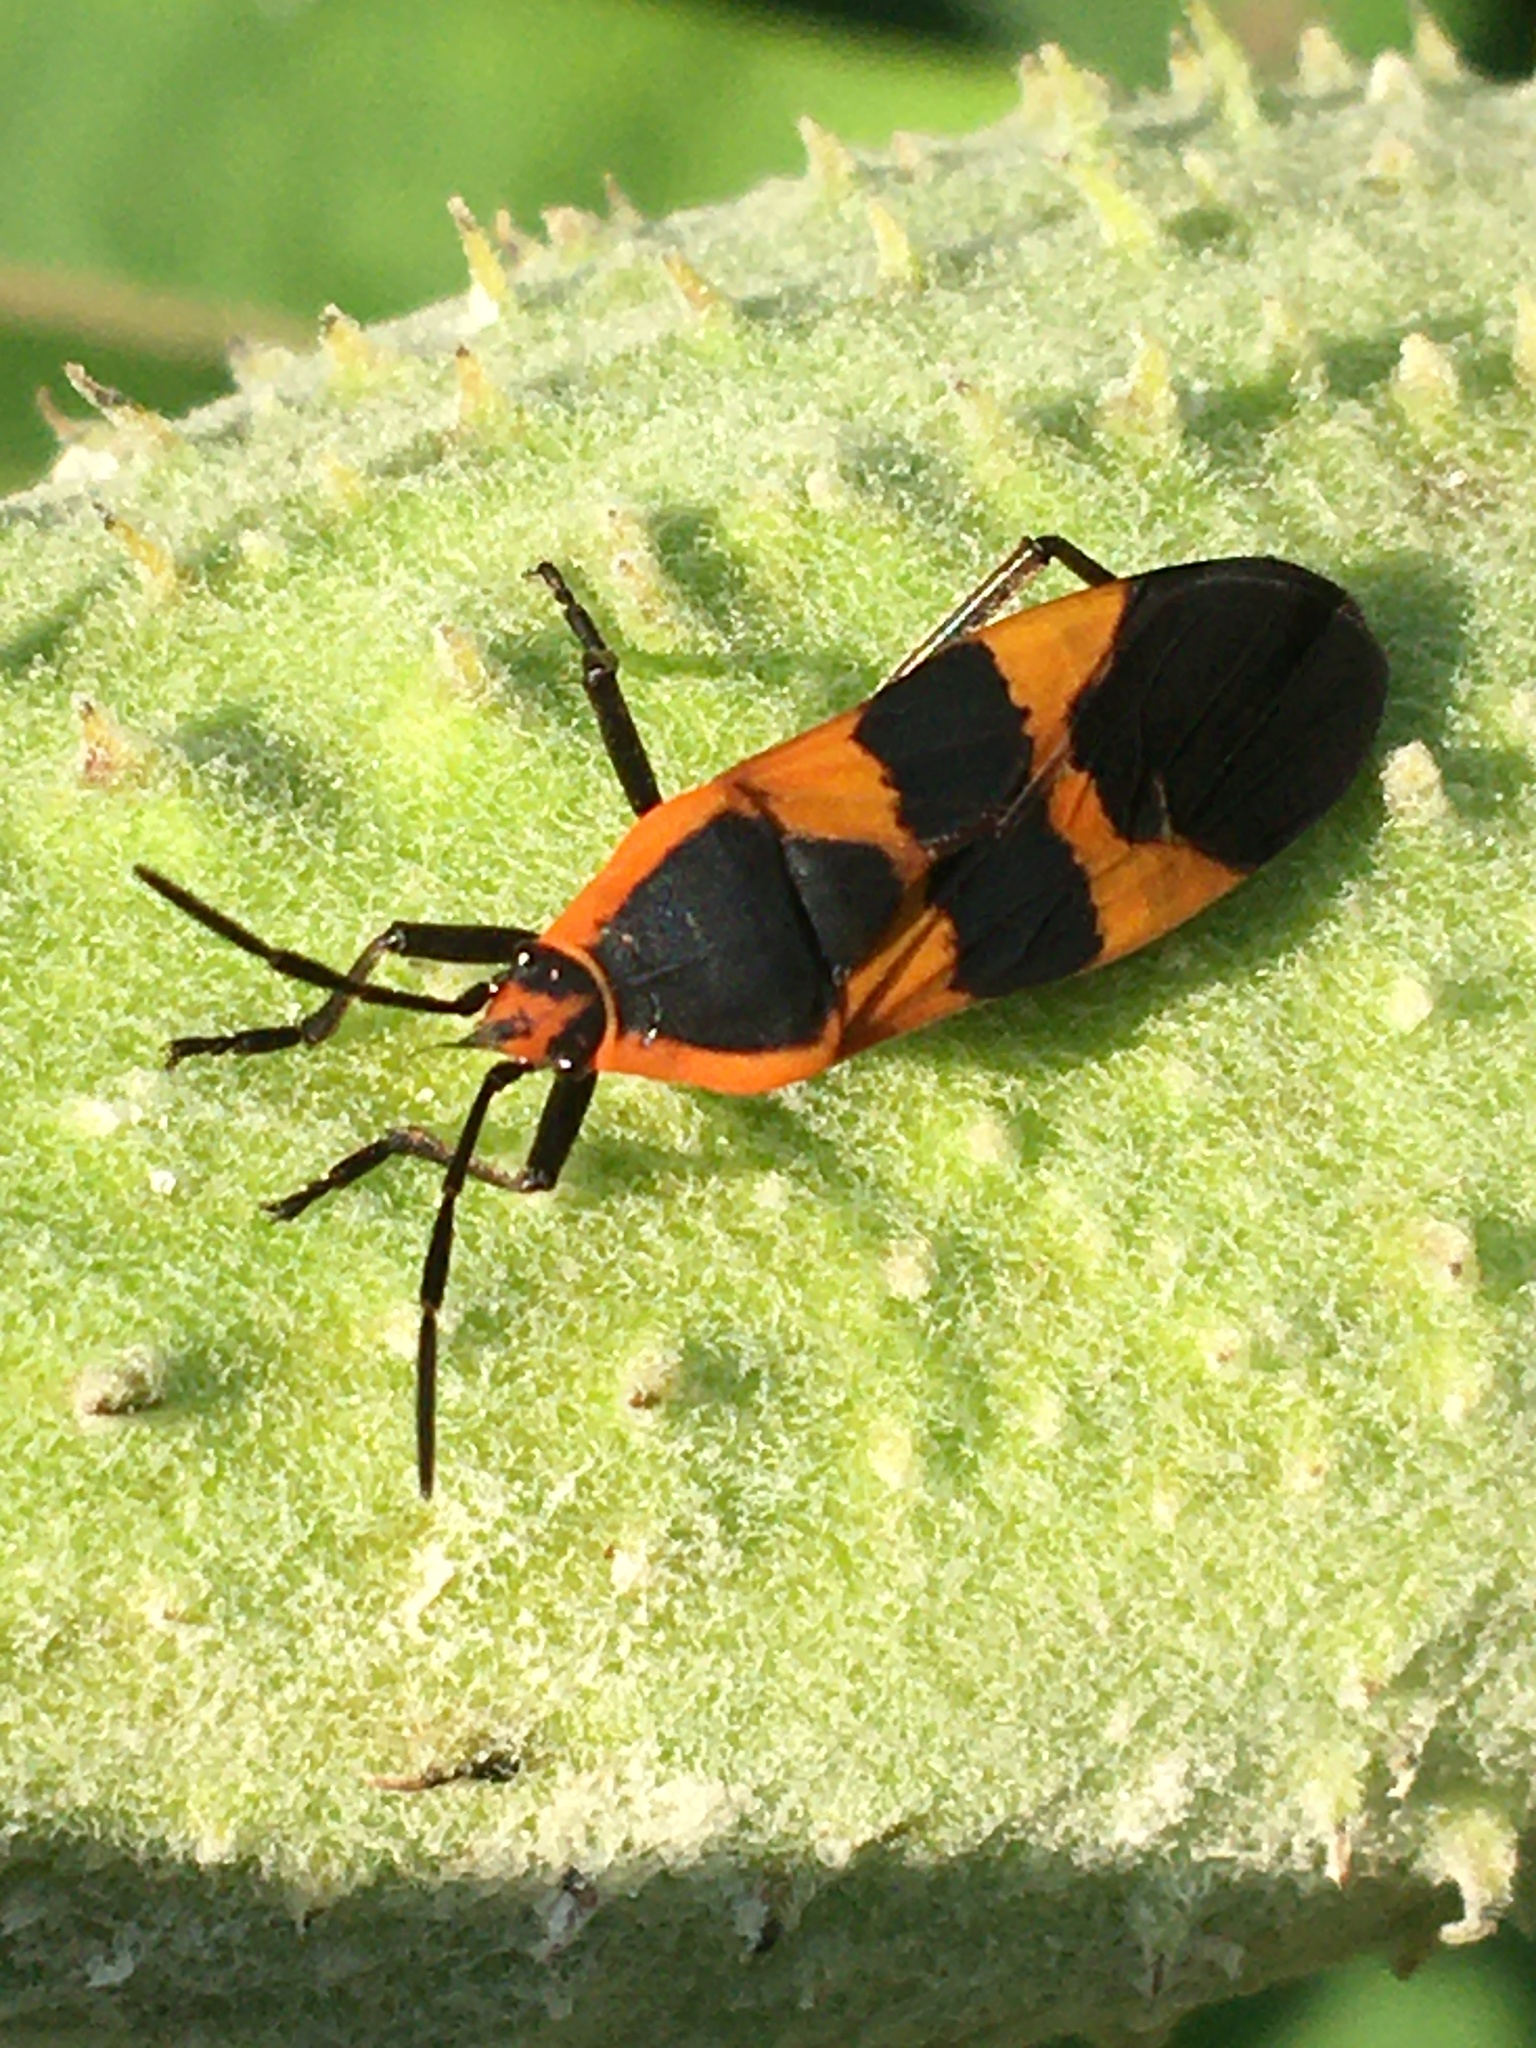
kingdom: Animalia
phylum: Arthropoda
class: Insecta
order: Hemiptera
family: Lygaeidae
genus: Oncopeltus
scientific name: Oncopeltus fasciatus
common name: Large milkweed bug
